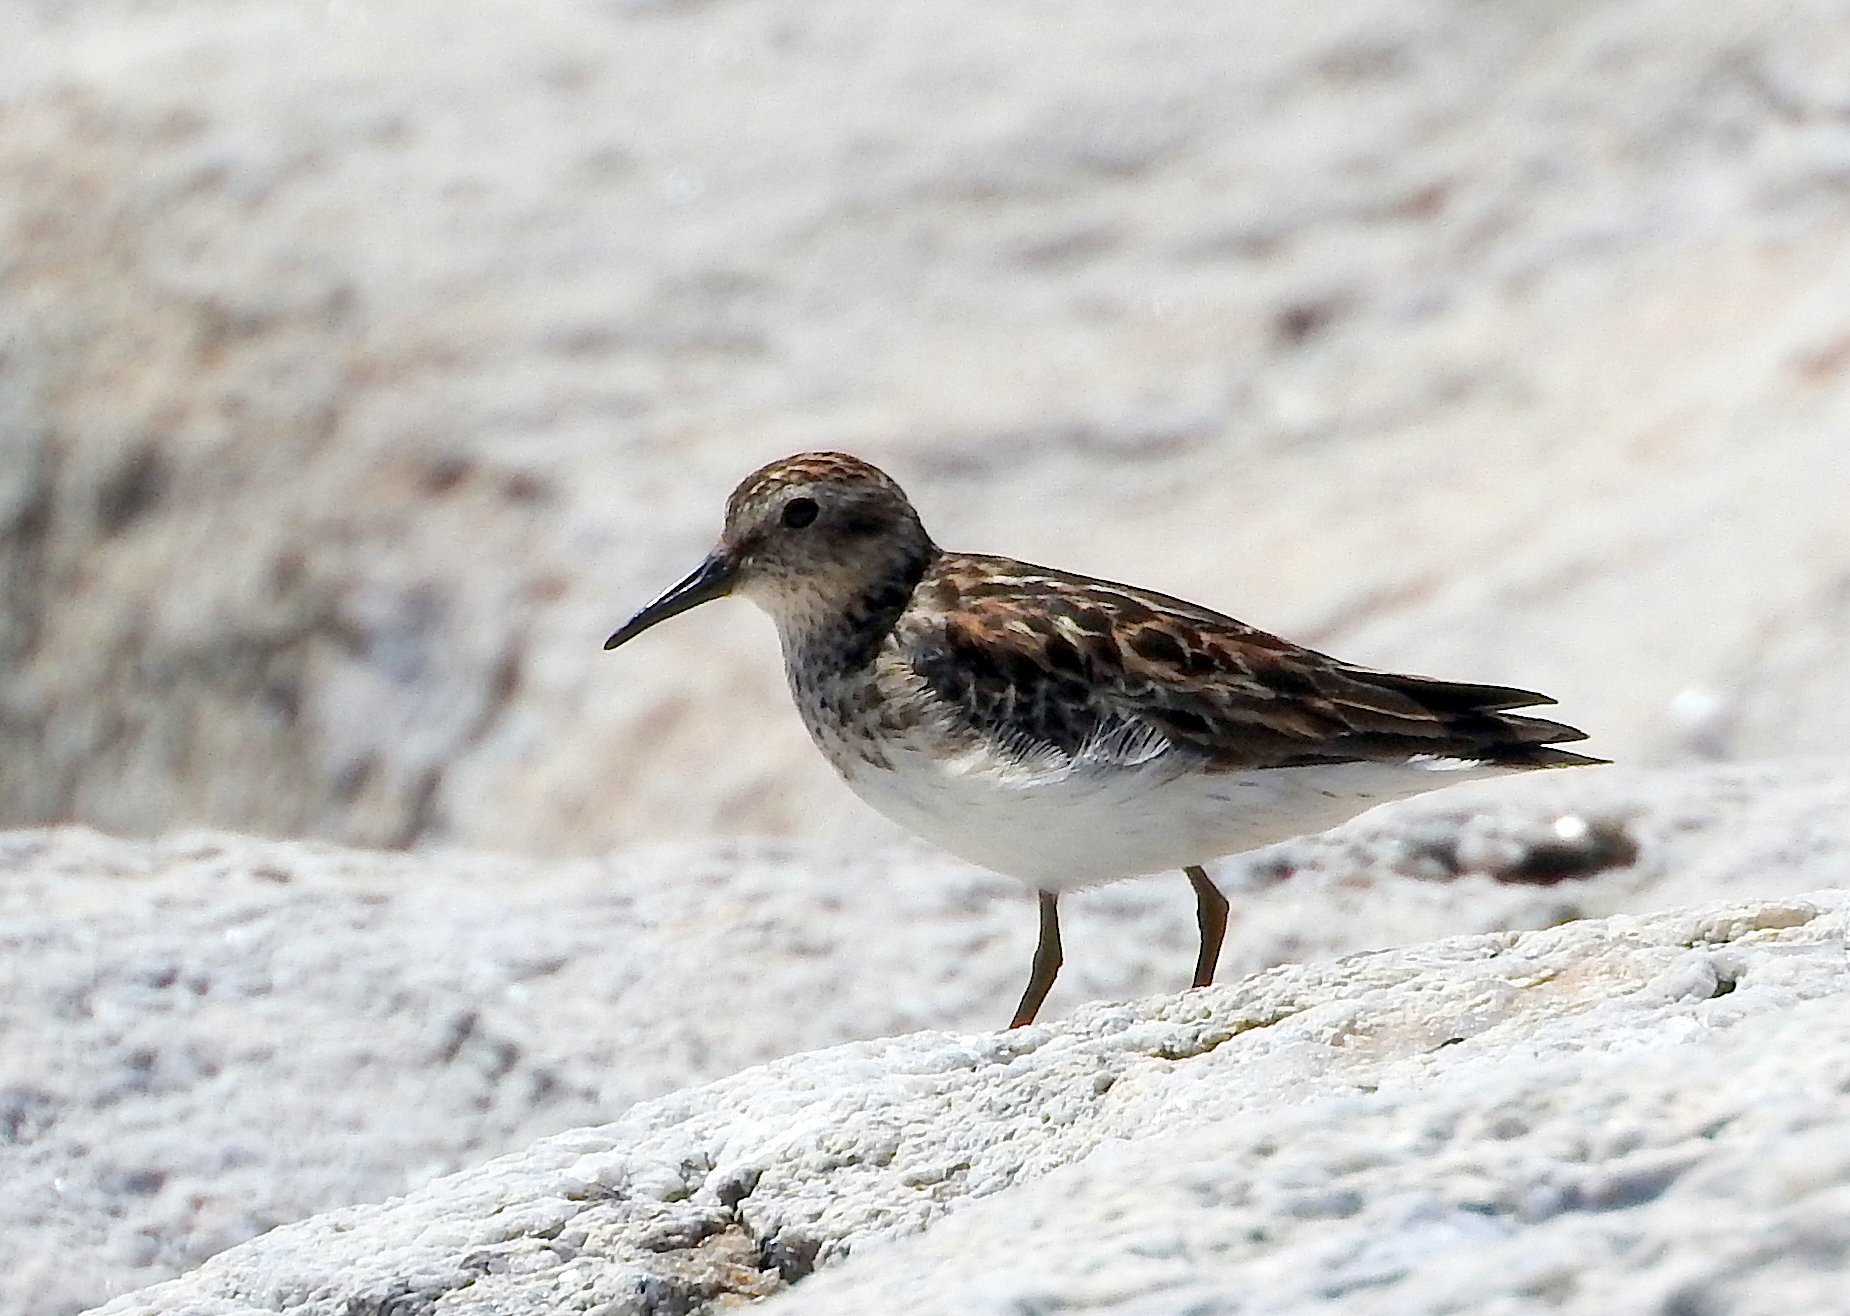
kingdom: Animalia
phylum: Chordata
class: Aves
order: Charadriiformes
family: Scolopacidae
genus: Calidris
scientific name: Calidris minutilla
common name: Least sandpiper
